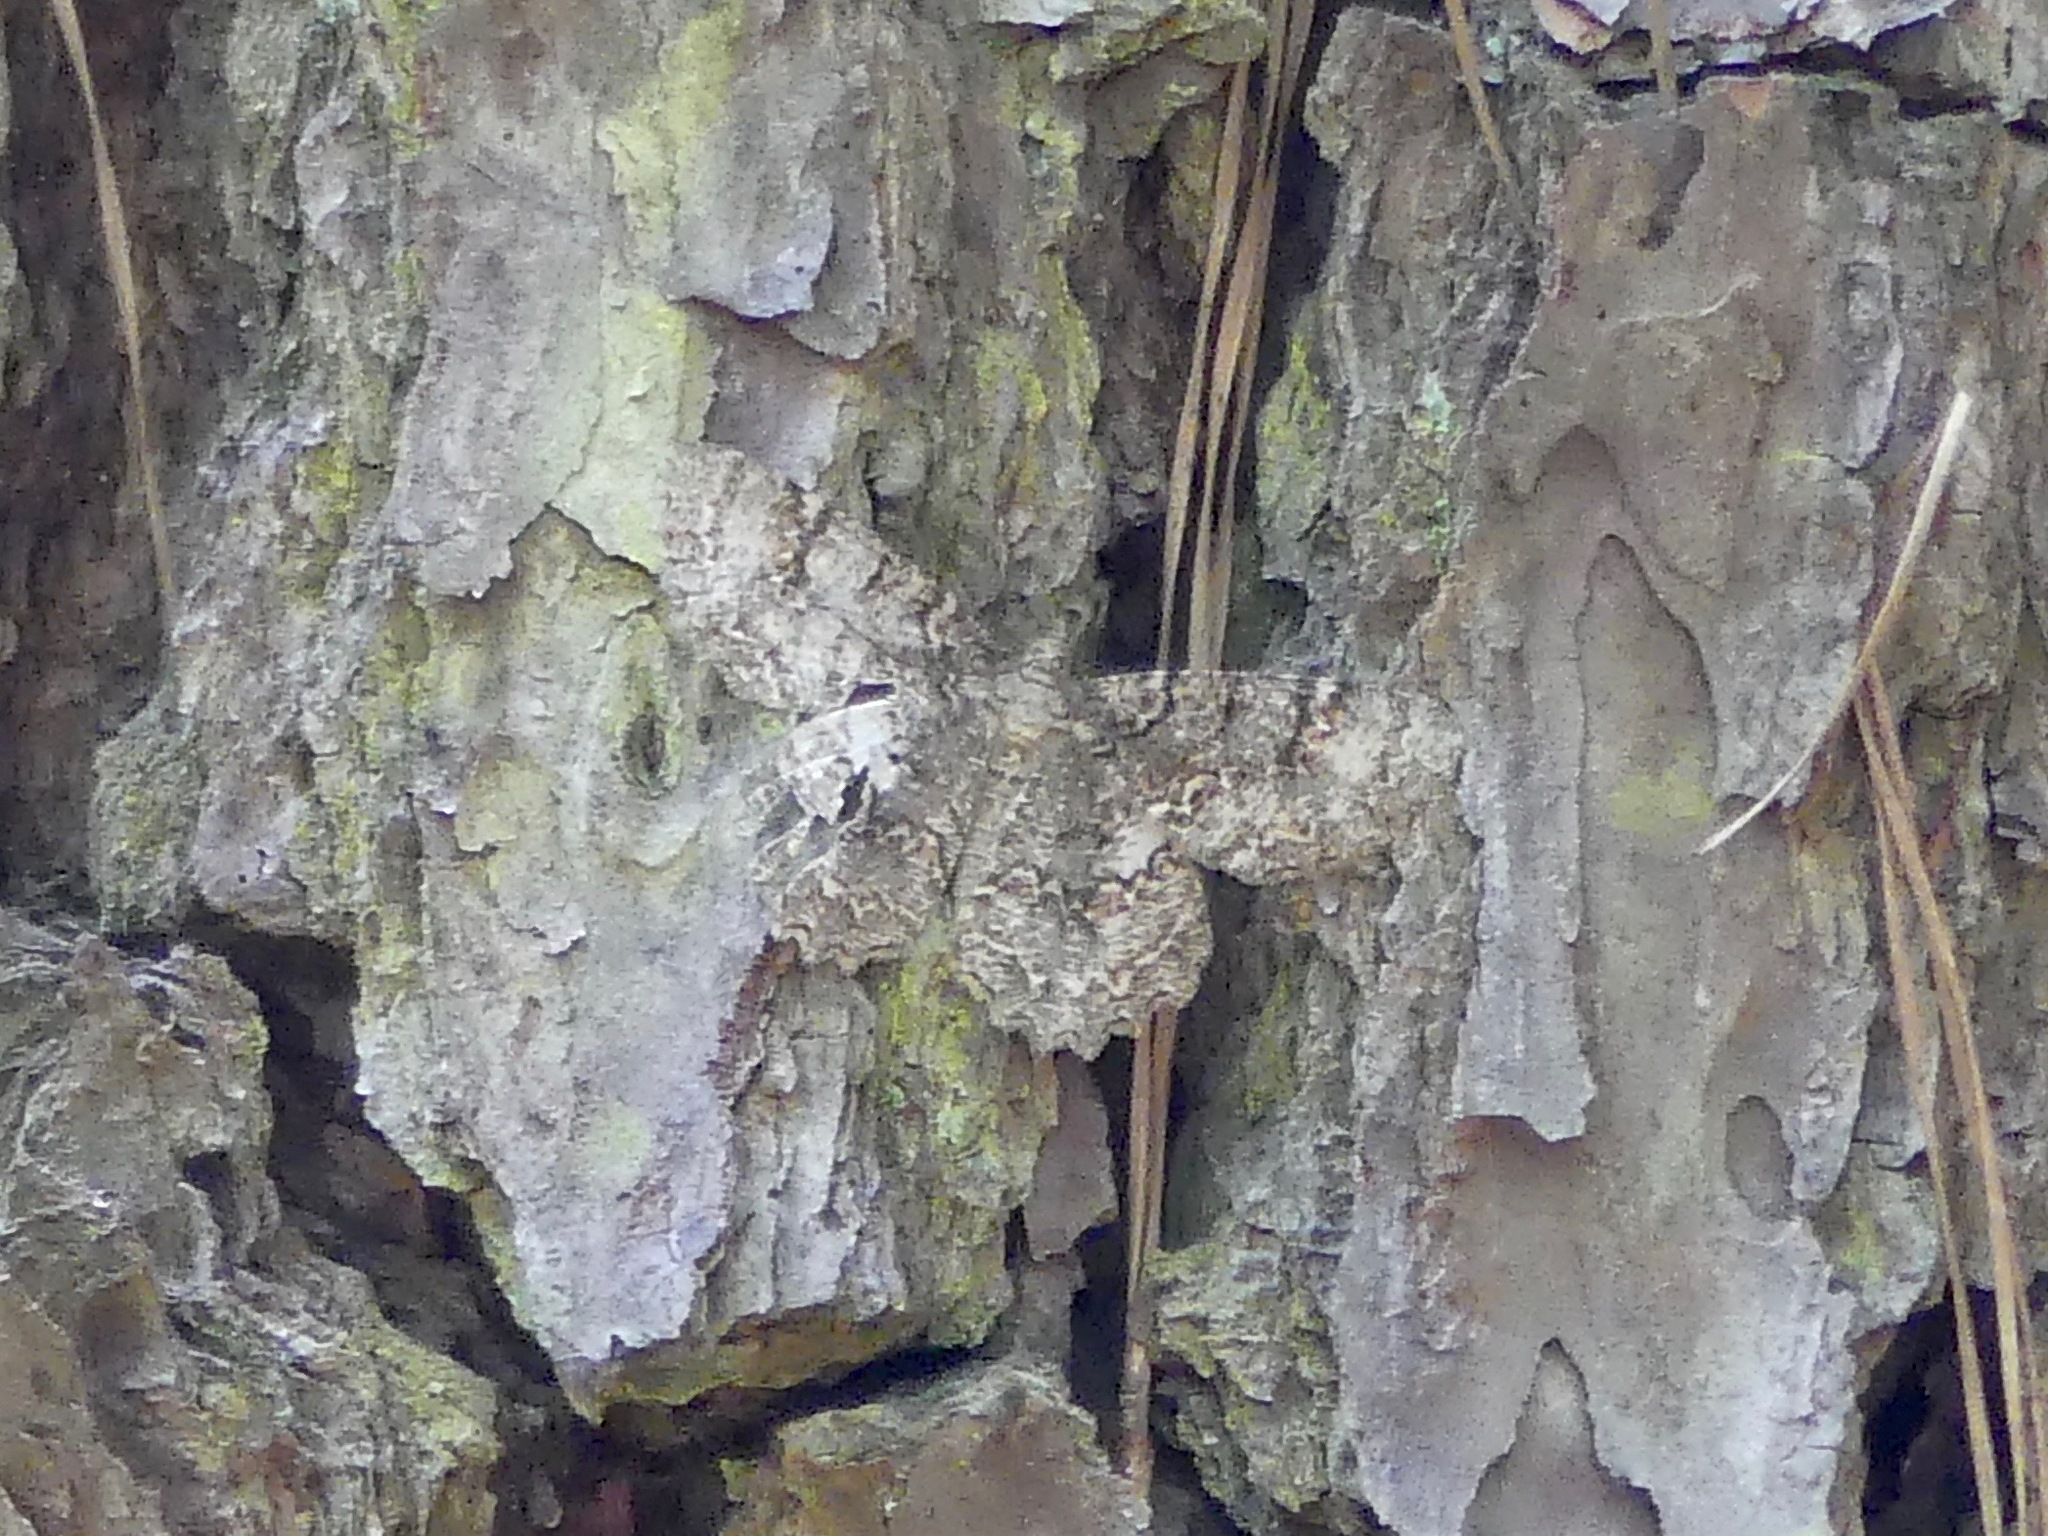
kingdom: Animalia
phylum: Arthropoda
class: Insecta
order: Lepidoptera
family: Geometridae
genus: Epimecis
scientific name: Epimecis hortaria
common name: Tulip-tree beauty
